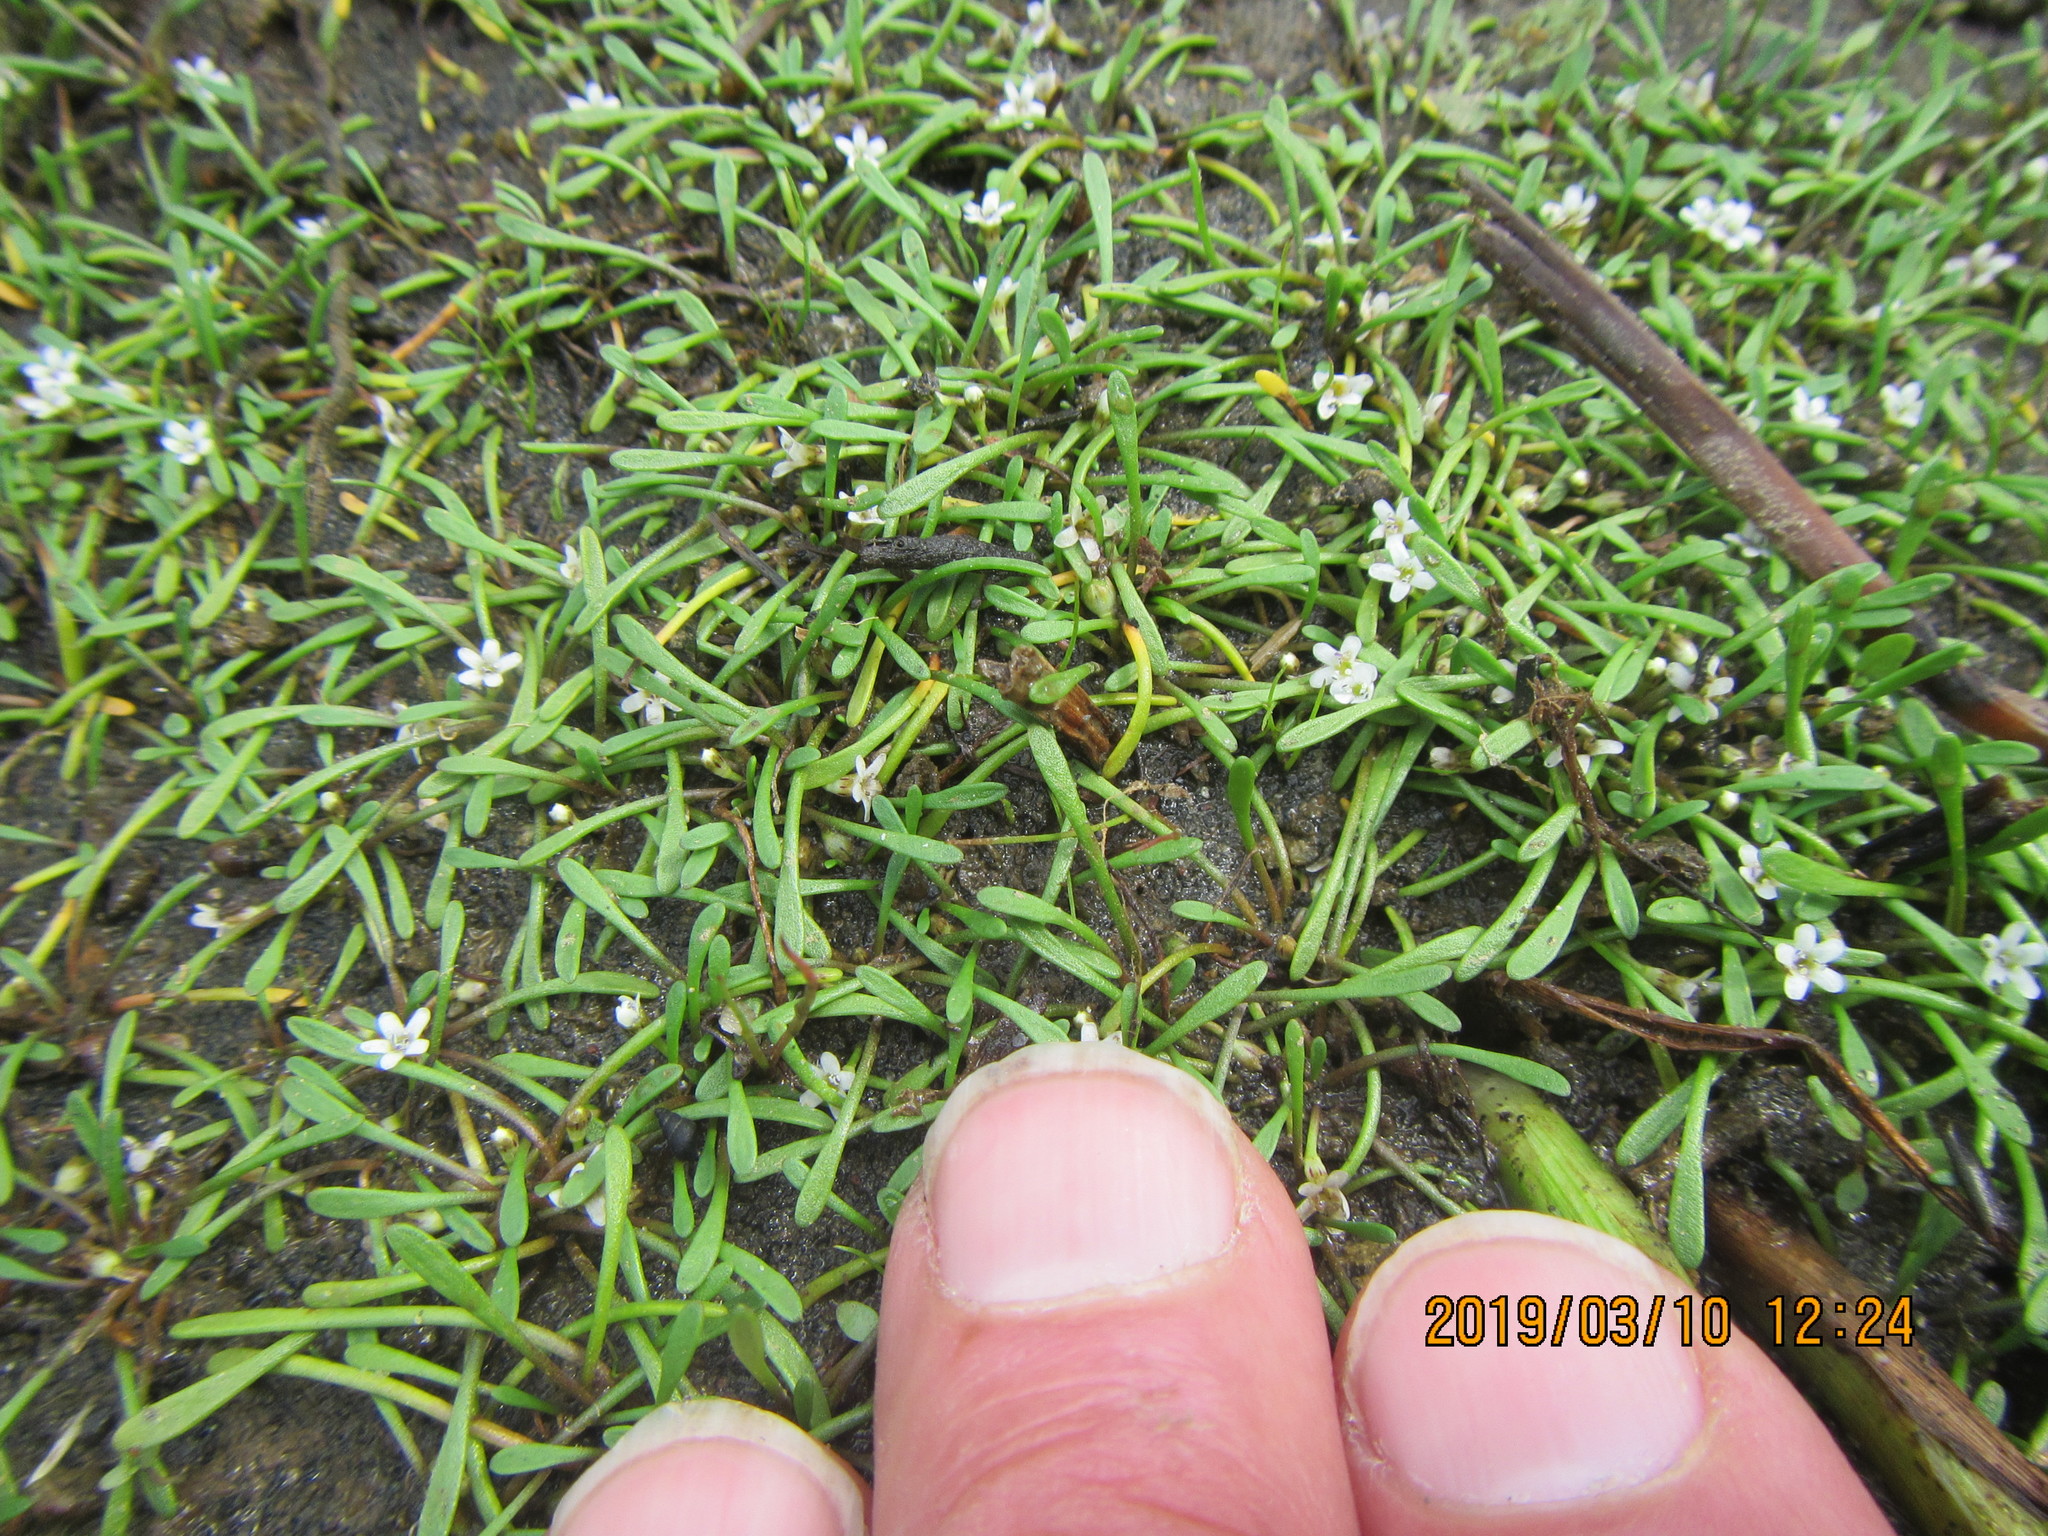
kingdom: Plantae
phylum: Tracheophyta
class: Magnoliopsida
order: Lamiales
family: Scrophulariaceae
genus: Limosella
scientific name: Limosella australis
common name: Welsh mudwort
